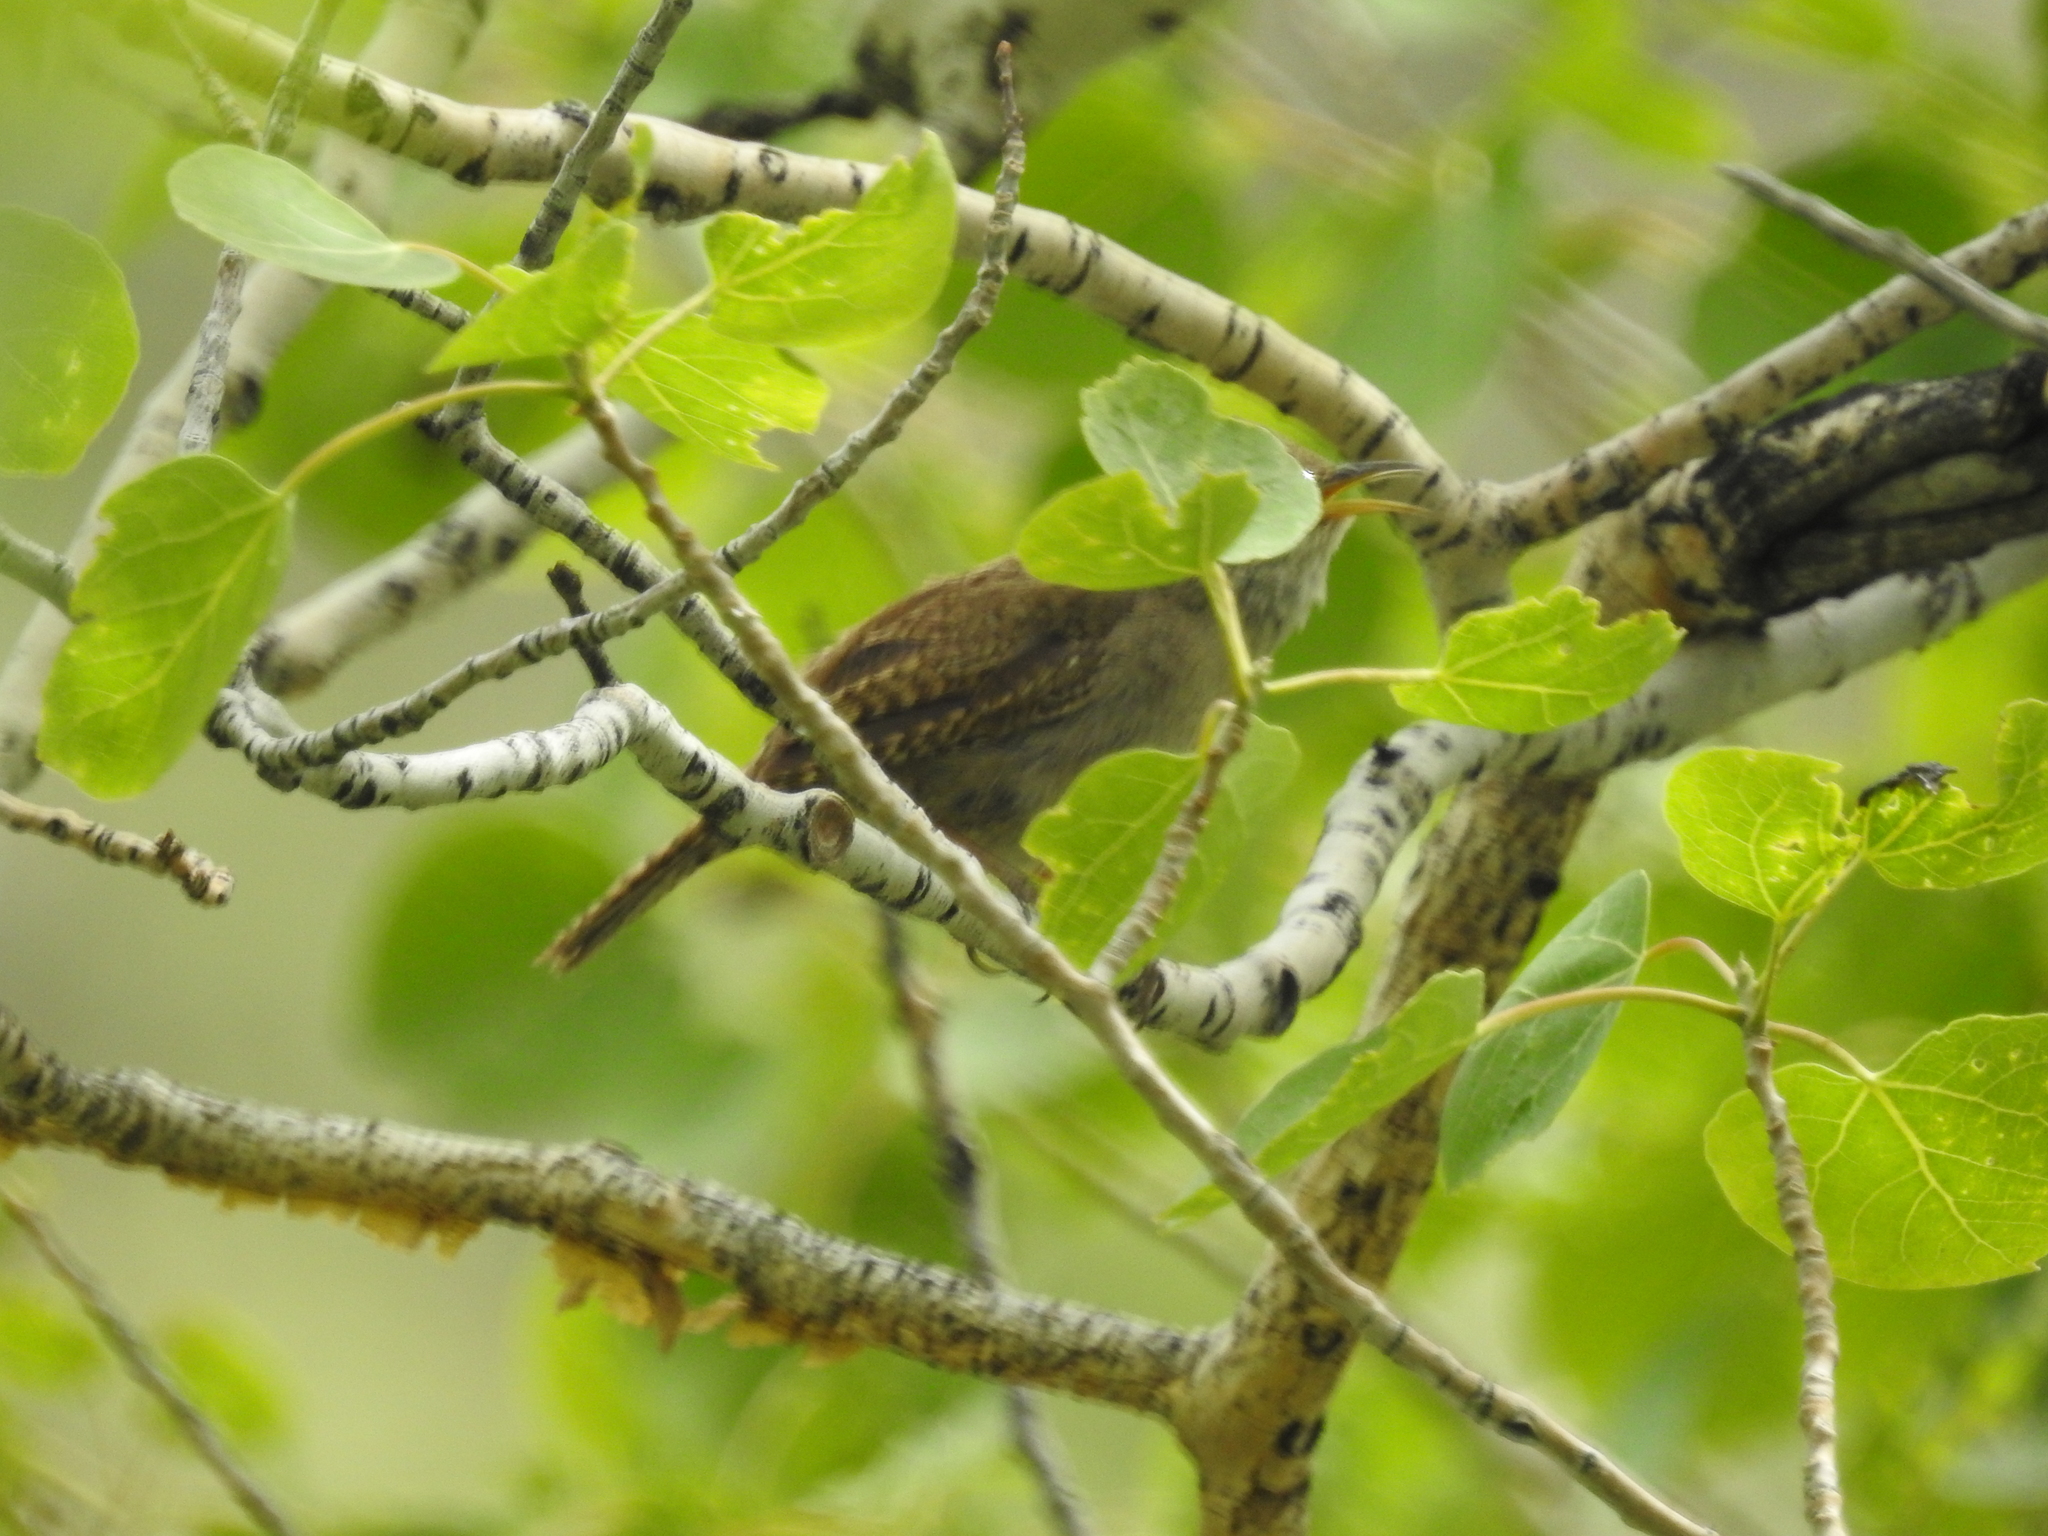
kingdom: Animalia
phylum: Chordata
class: Aves
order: Passeriformes
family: Troglodytidae
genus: Troglodytes
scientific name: Troglodytes aedon
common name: House wren
